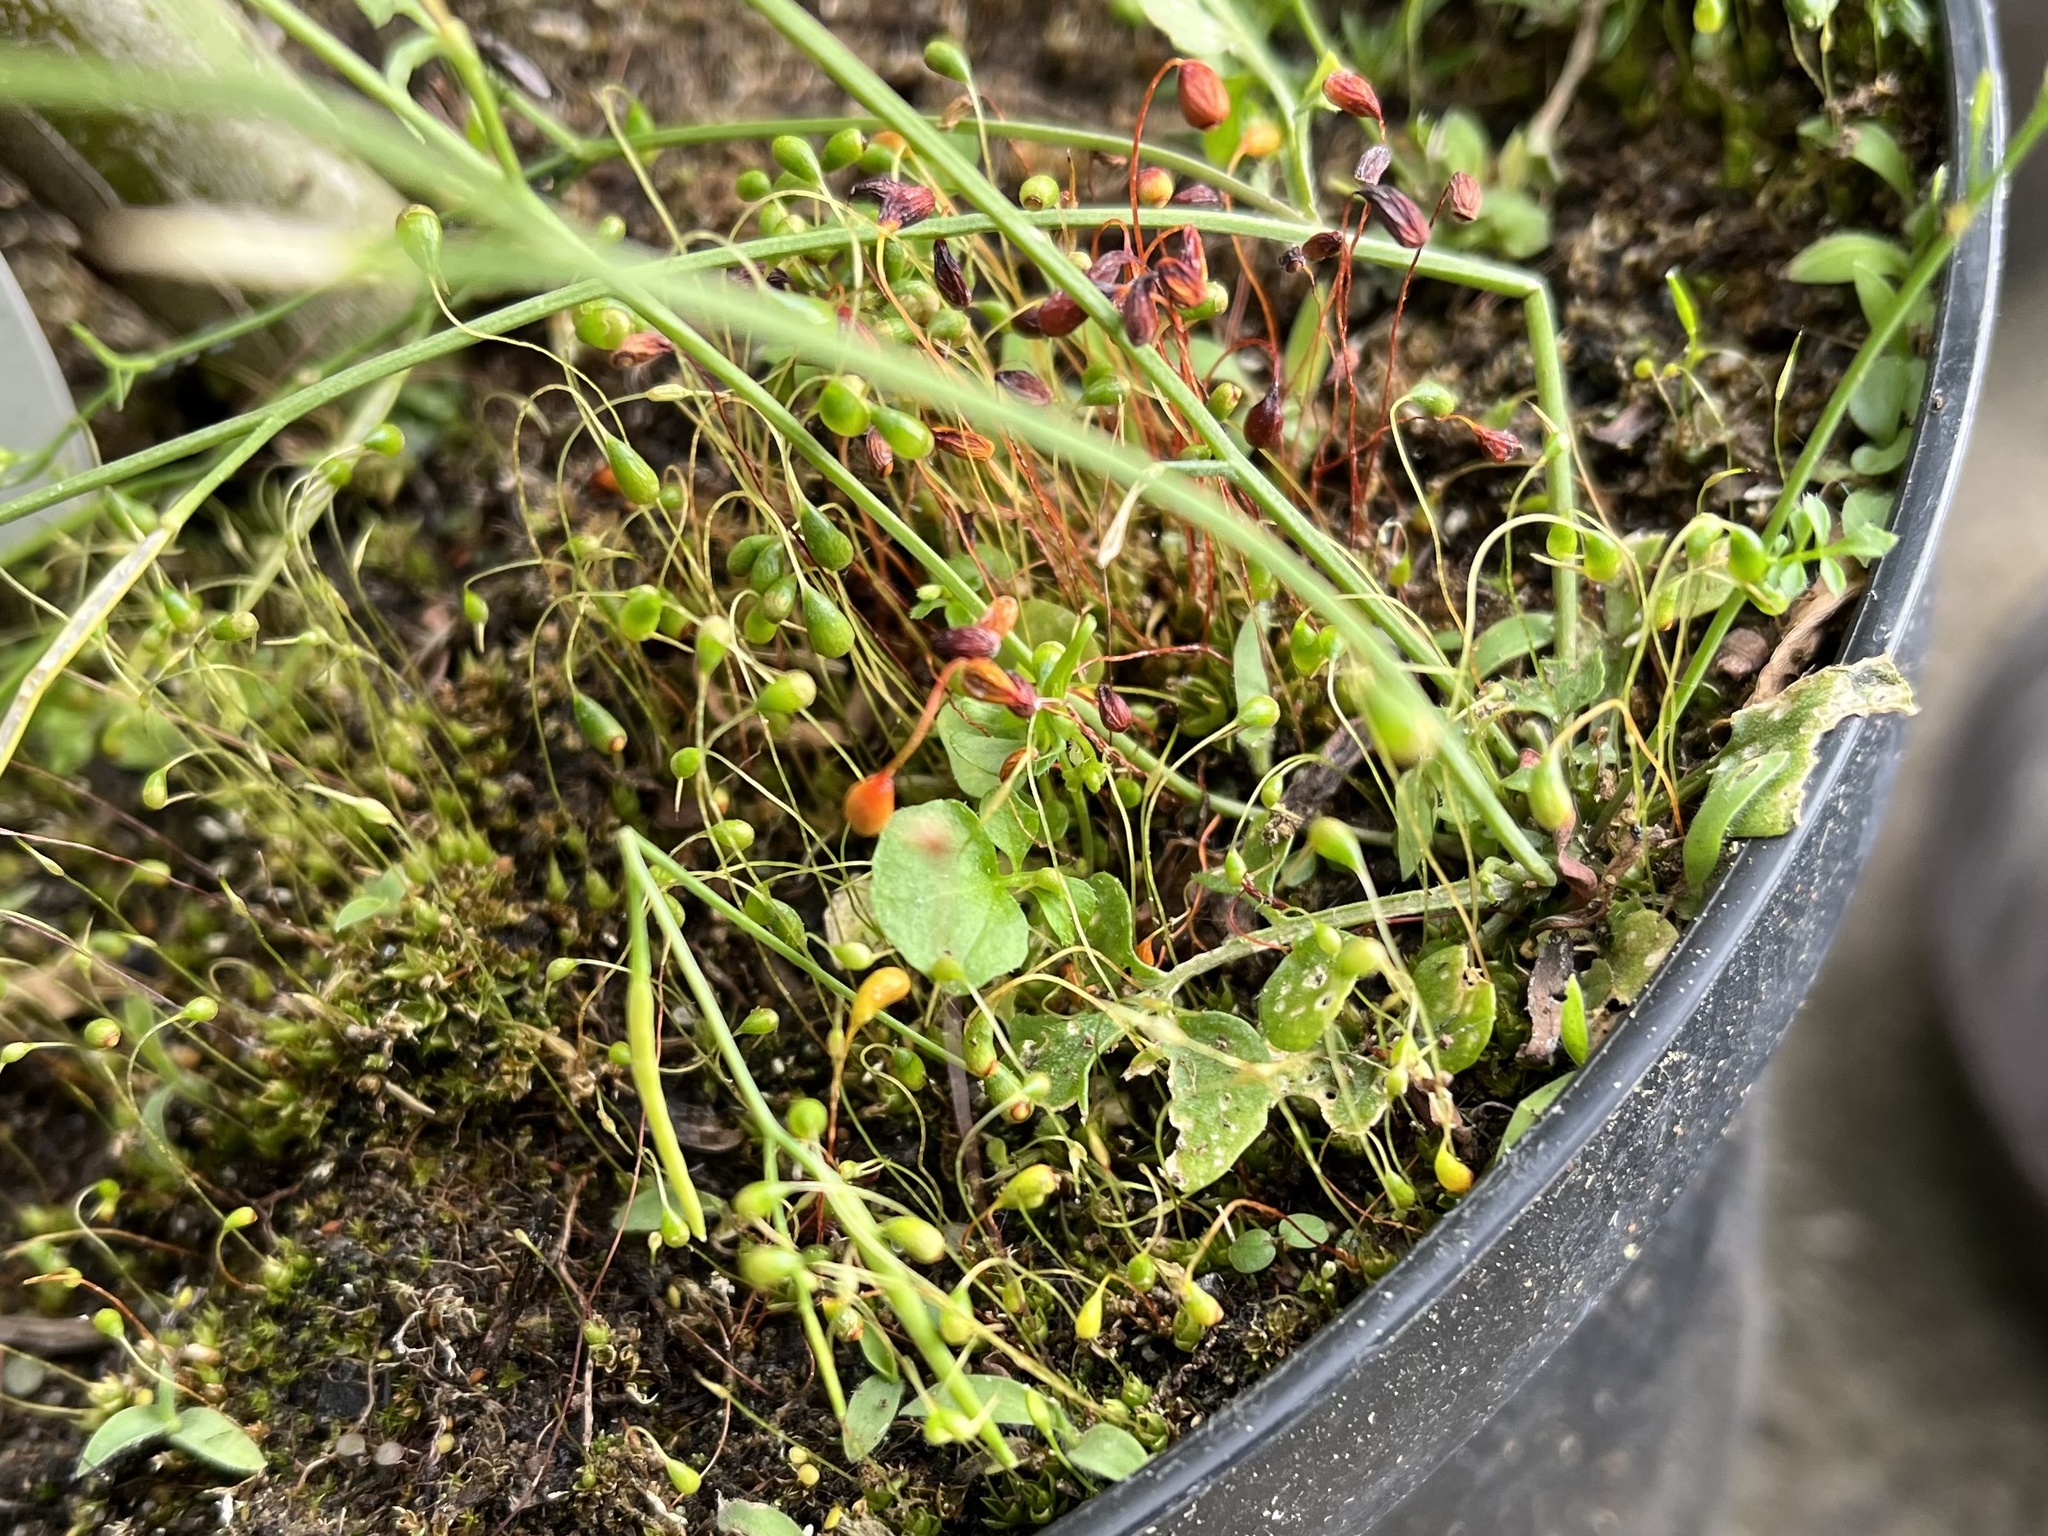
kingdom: Plantae
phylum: Bryophyta
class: Bryopsida
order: Funariales
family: Funariaceae
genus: Funaria
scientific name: Funaria hygrometrica
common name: Common cord moss
